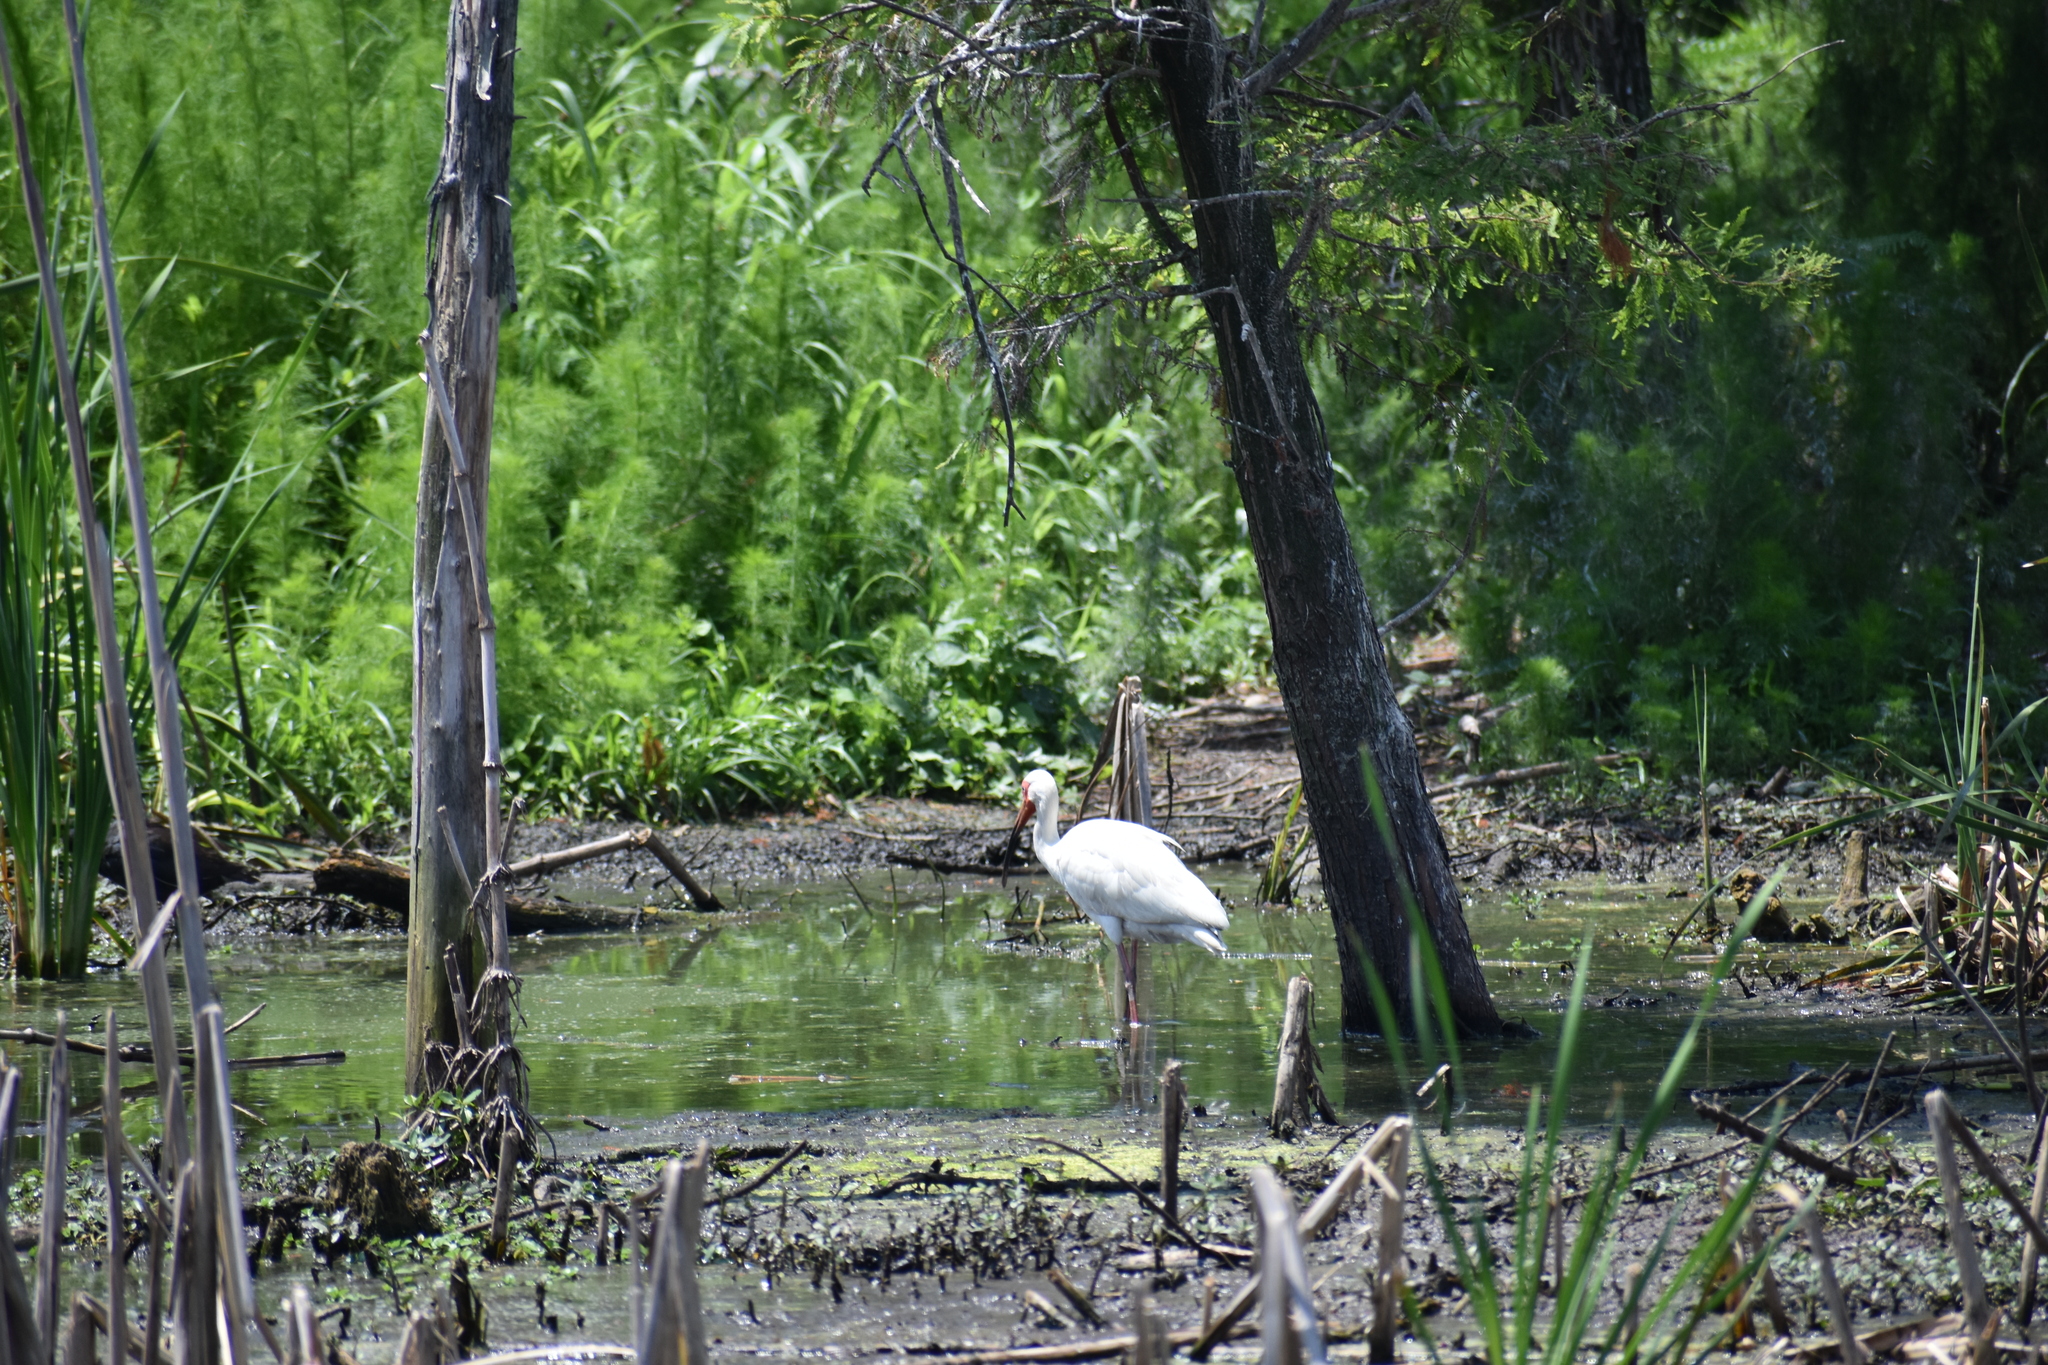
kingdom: Animalia
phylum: Chordata
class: Aves
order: Pelecaniformes
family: Threskiornithidae
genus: Eudocimus
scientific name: Eudocimus albus
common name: White ibis
